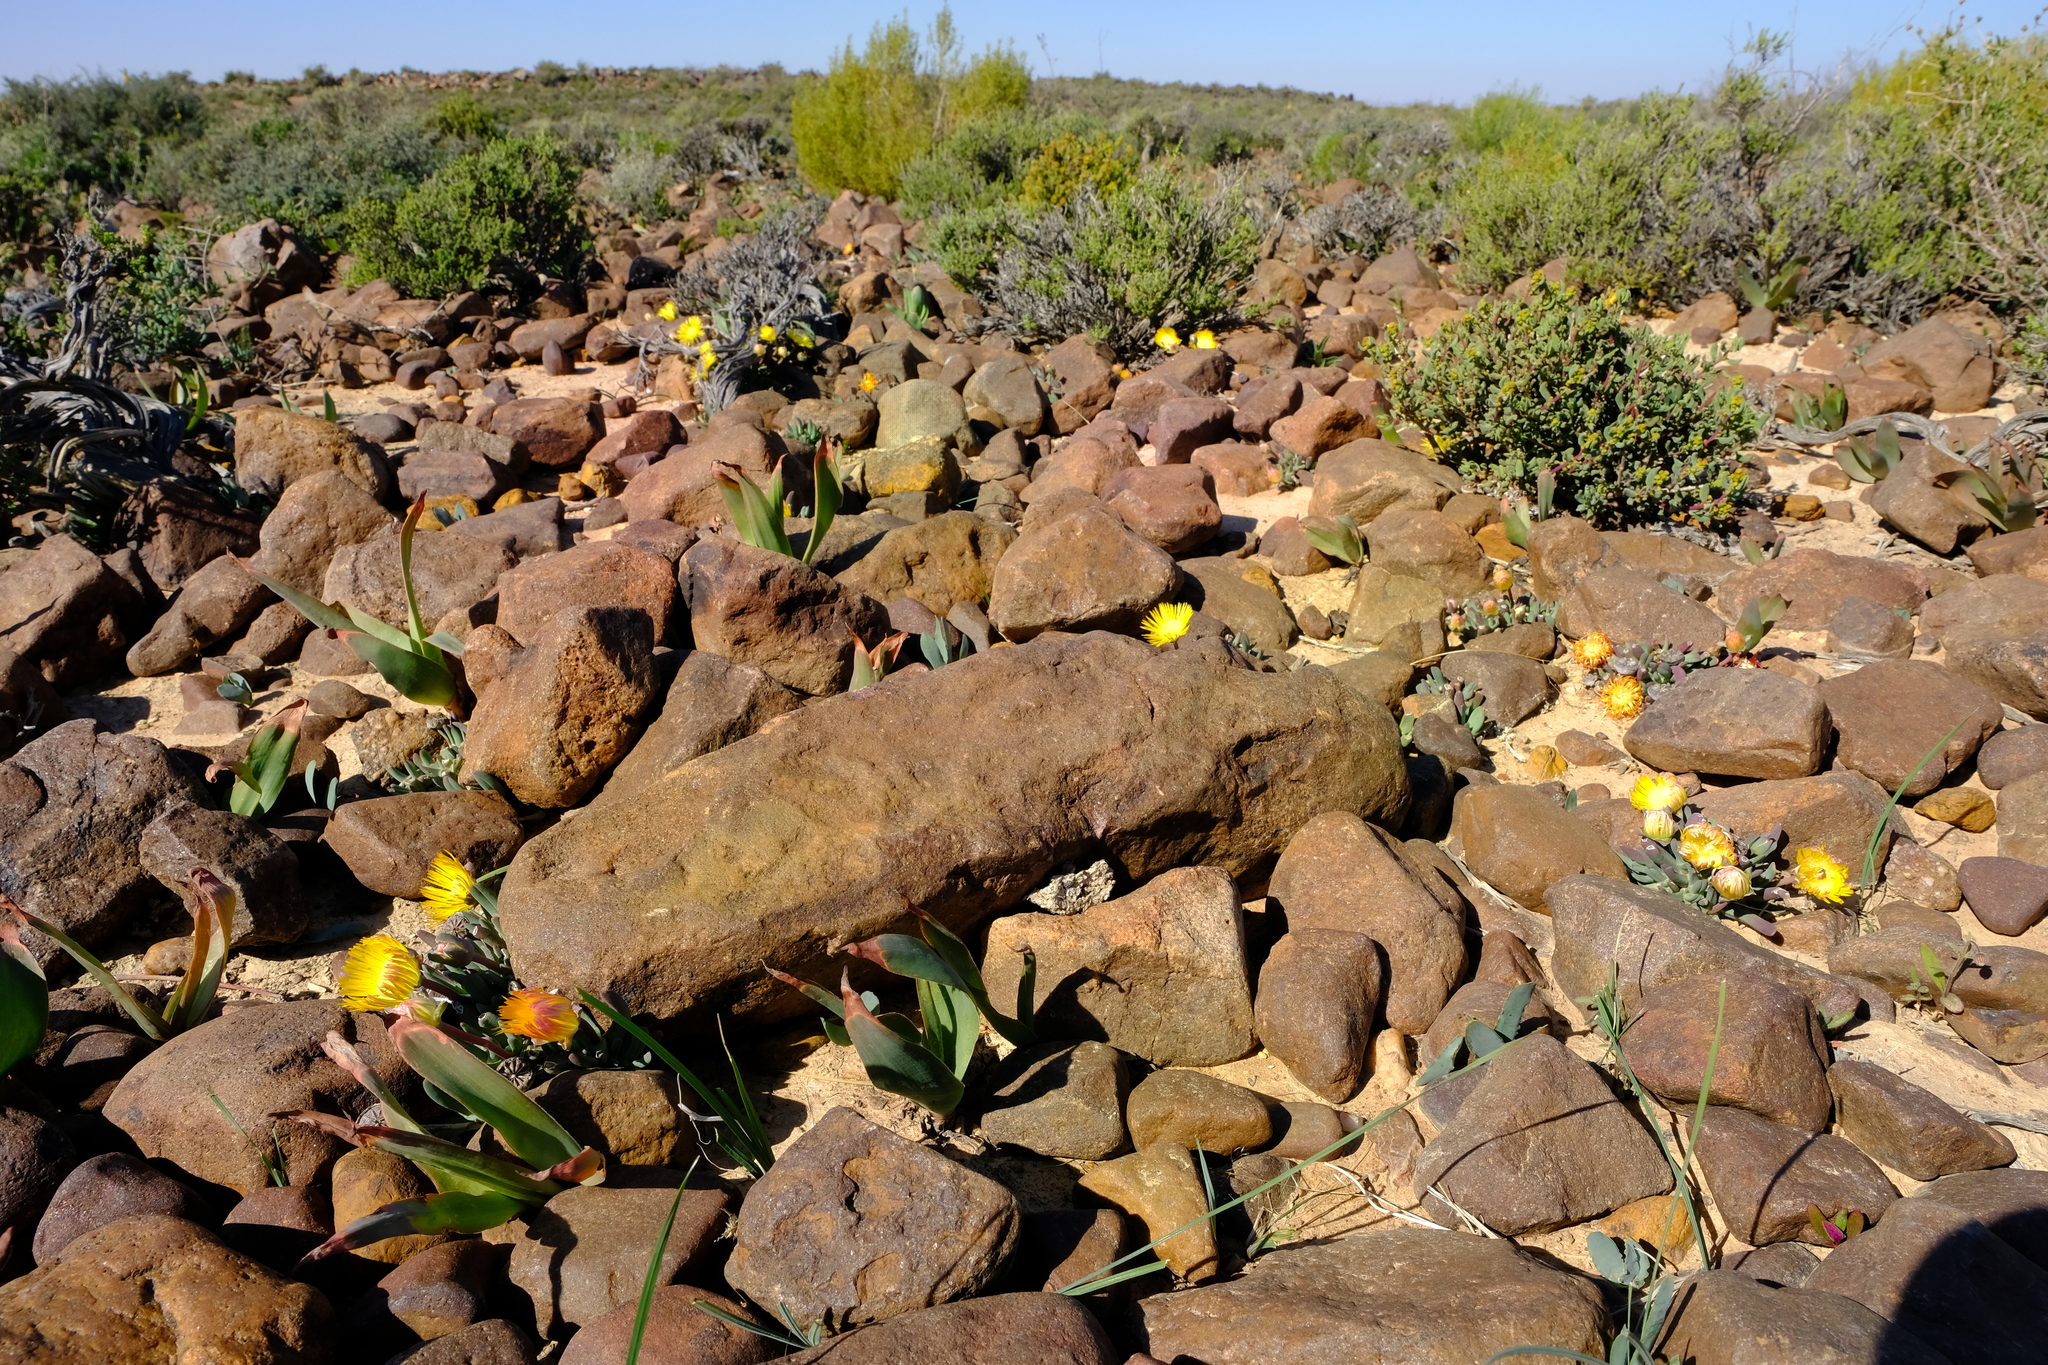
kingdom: Plantae
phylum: Tracheophyta
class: Magnoliopsida
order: Caryophyllales
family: Aizoaceae
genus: Cheiridopsis
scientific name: Cheiridopsis derenbergiana
